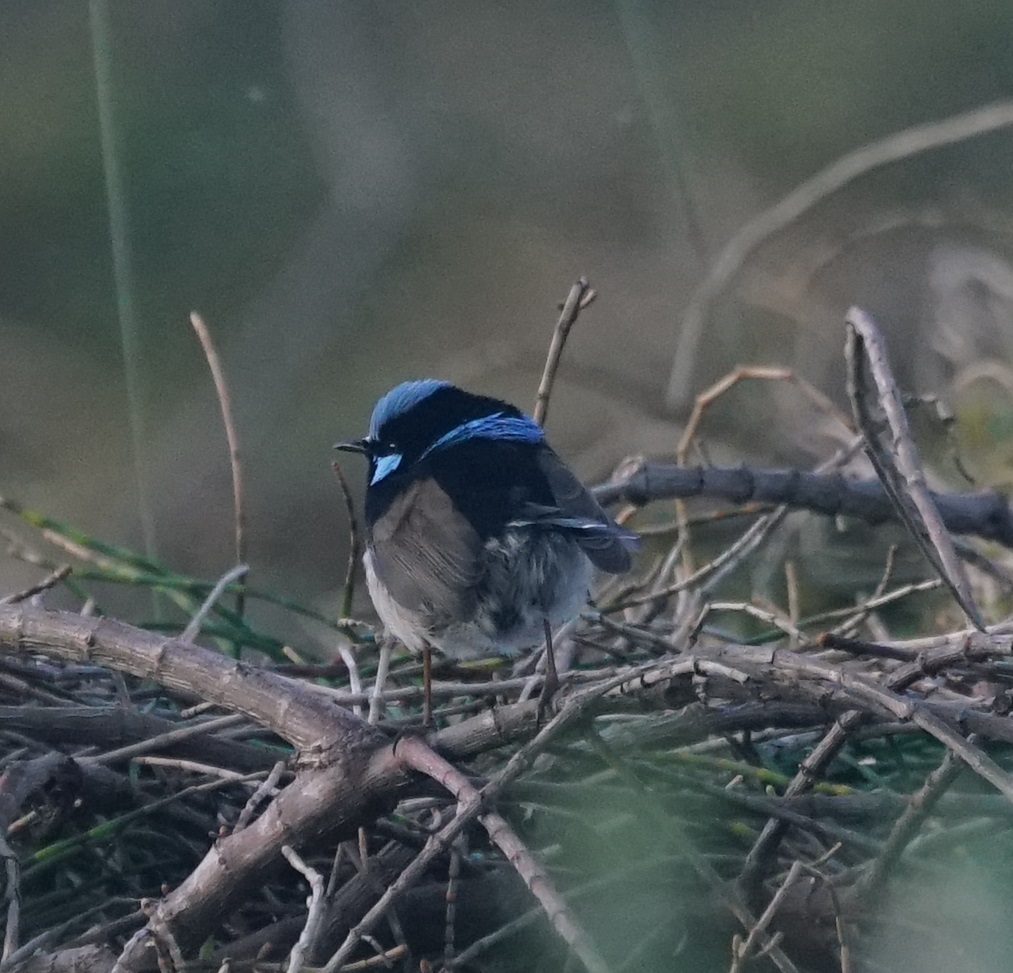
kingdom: Animalia
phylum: Chordata
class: Aves
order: Passeriformes
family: Maluridae
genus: Malurus
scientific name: Malurus cyaneus
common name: Superb fairywren
